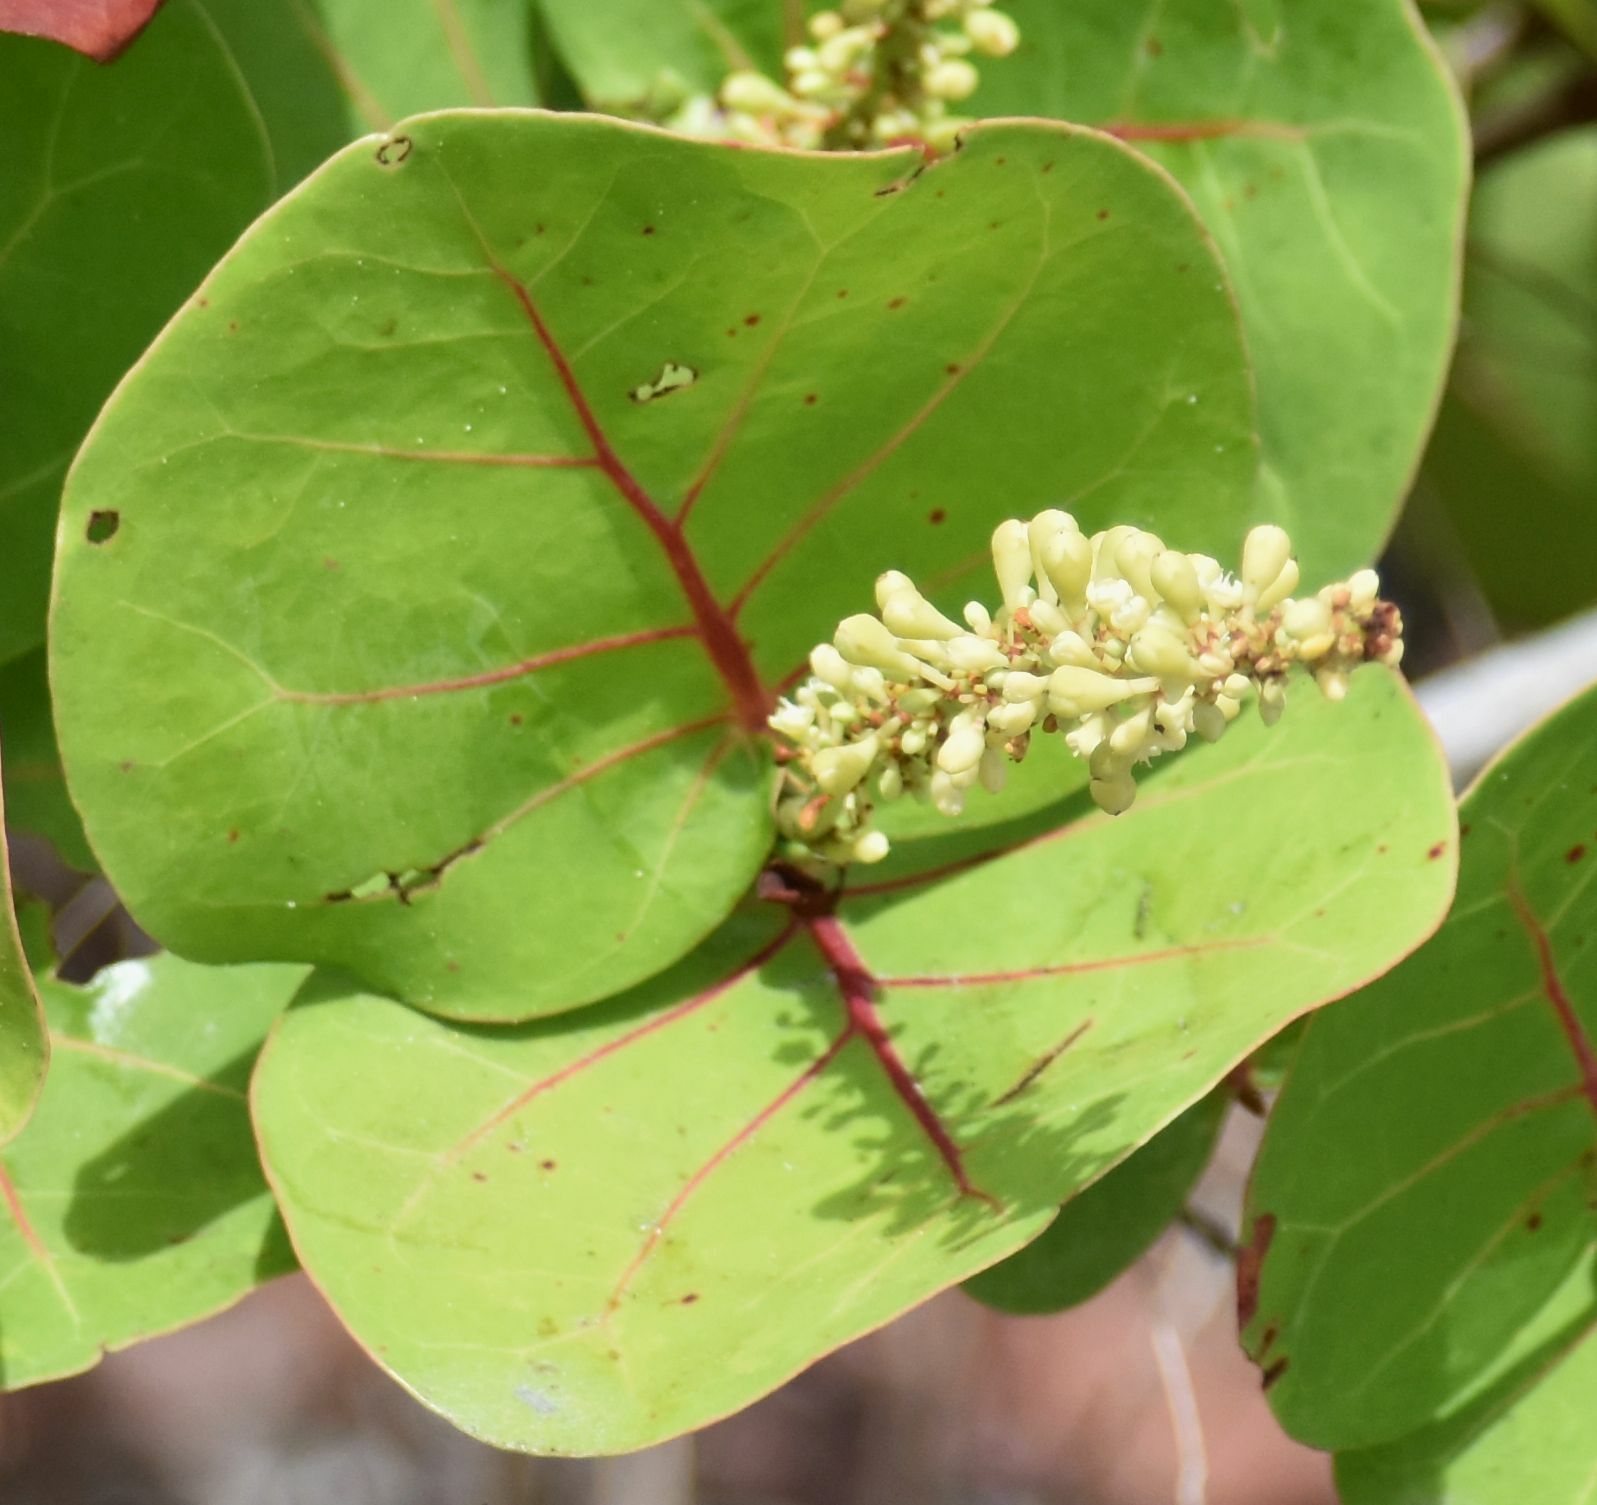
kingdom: Plantae
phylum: Tracheophyta
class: Magnoliopsida
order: Caryophyllales
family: Polygonaceae
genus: Coccoloba
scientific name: Coccoloba uvifera
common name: Seagrape
